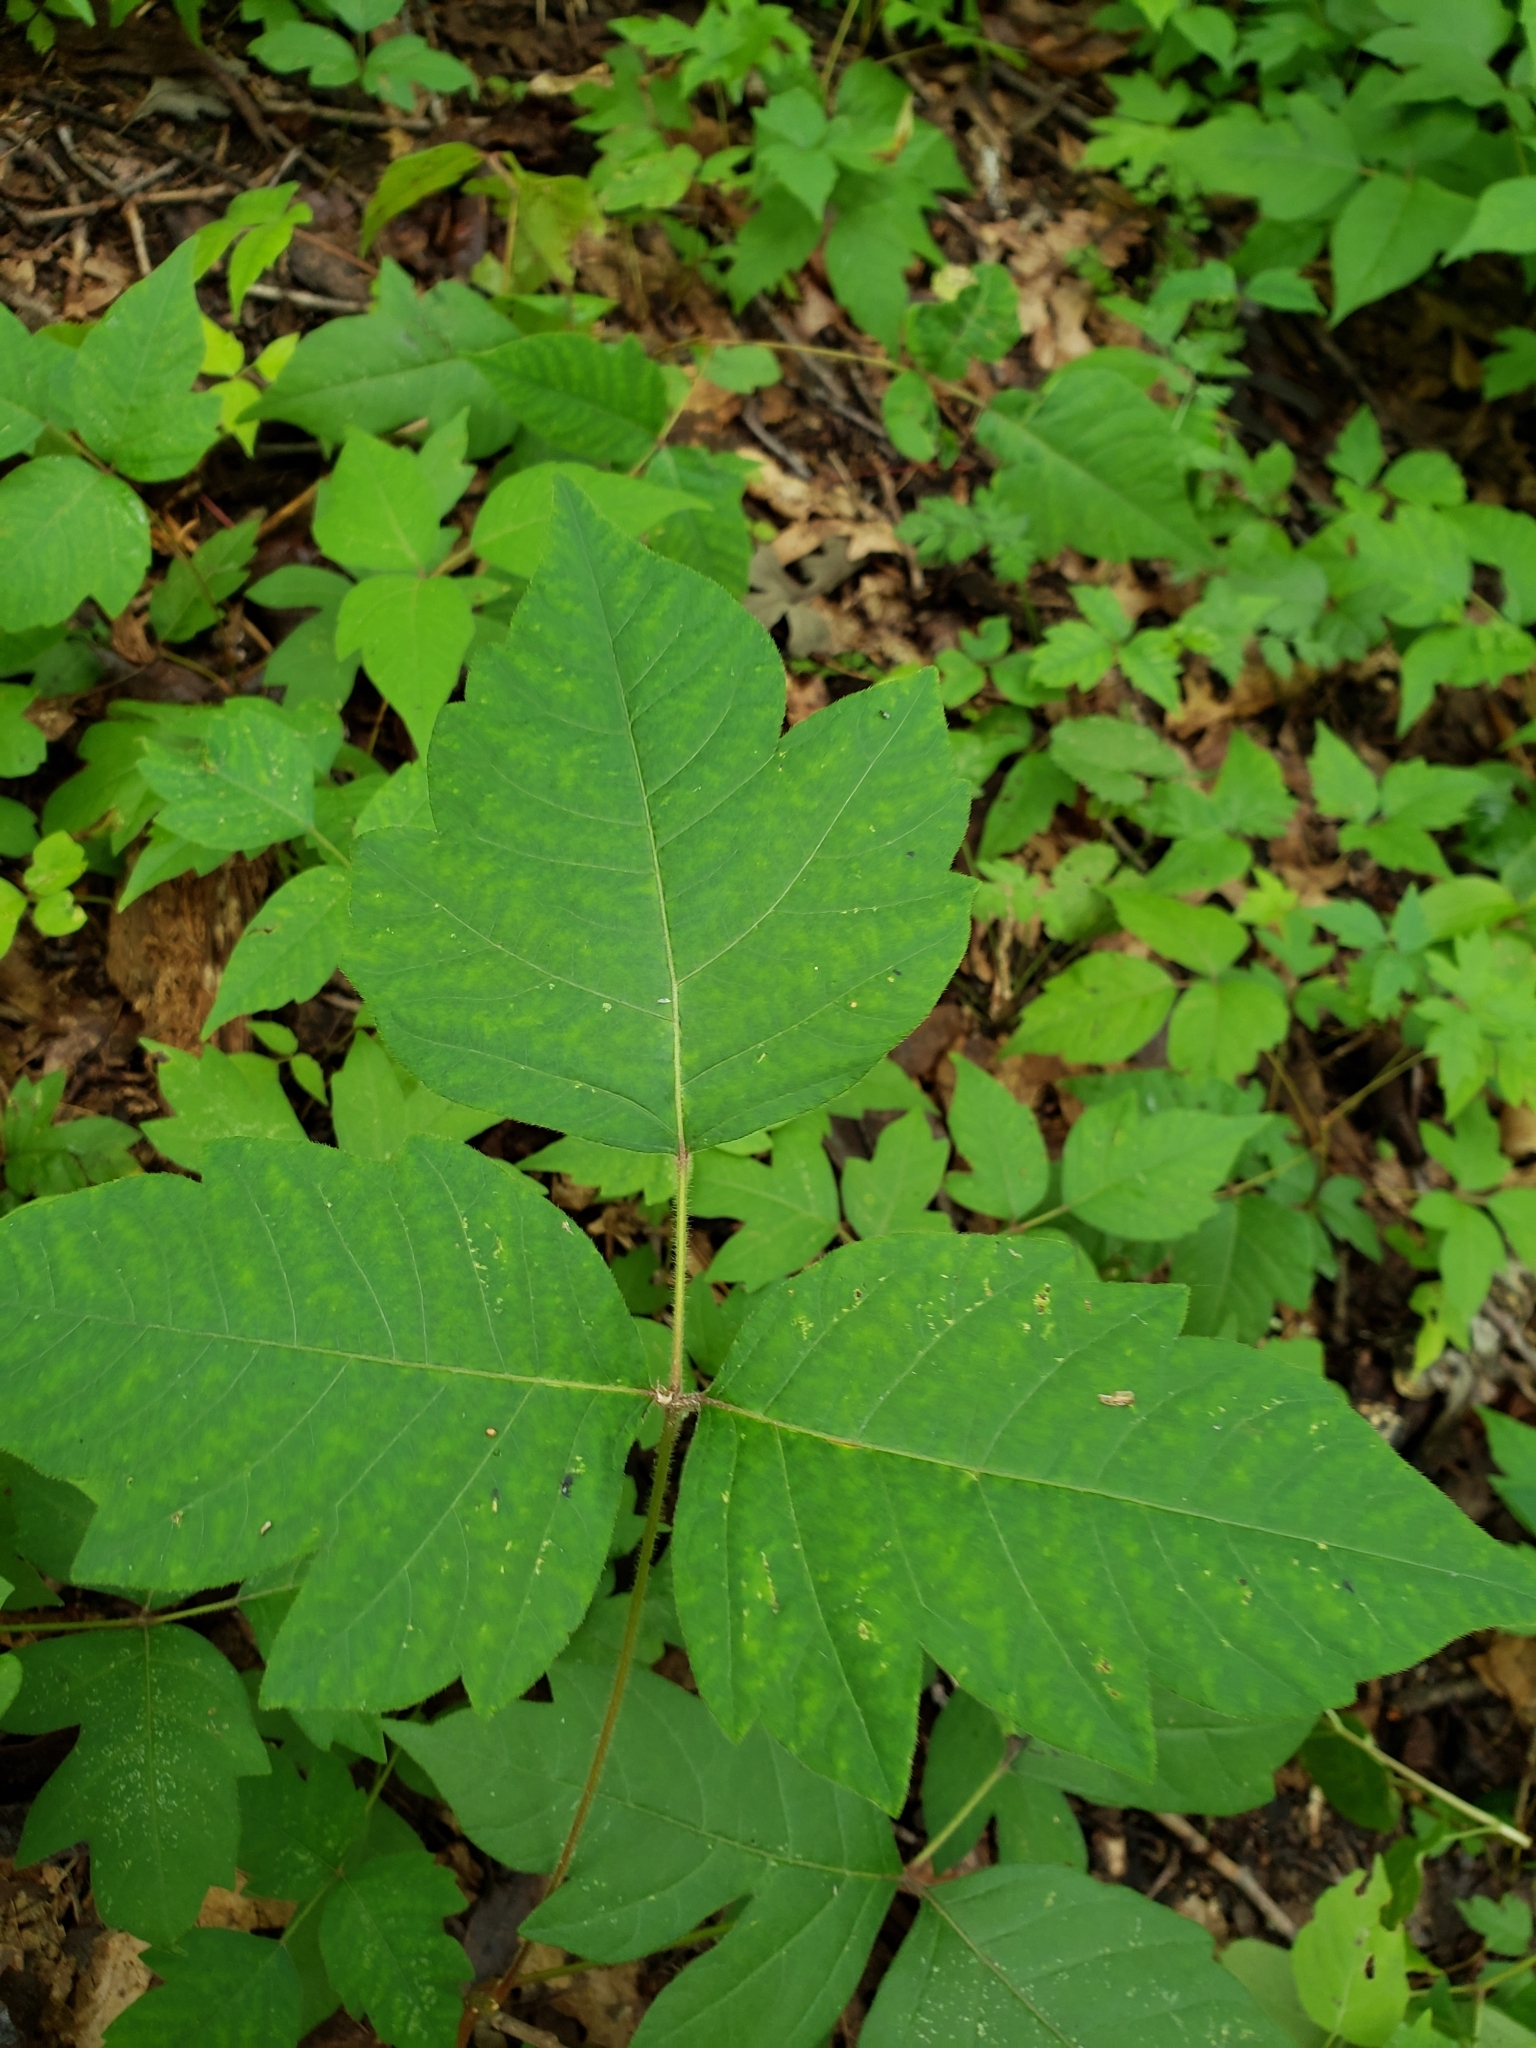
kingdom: Plantae
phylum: Tracheophyta
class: Magnoliopsida
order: Sapindales
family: Anacardiaceae
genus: Toxicodendron
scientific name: Toxicodendron radicans
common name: Poison ivy
